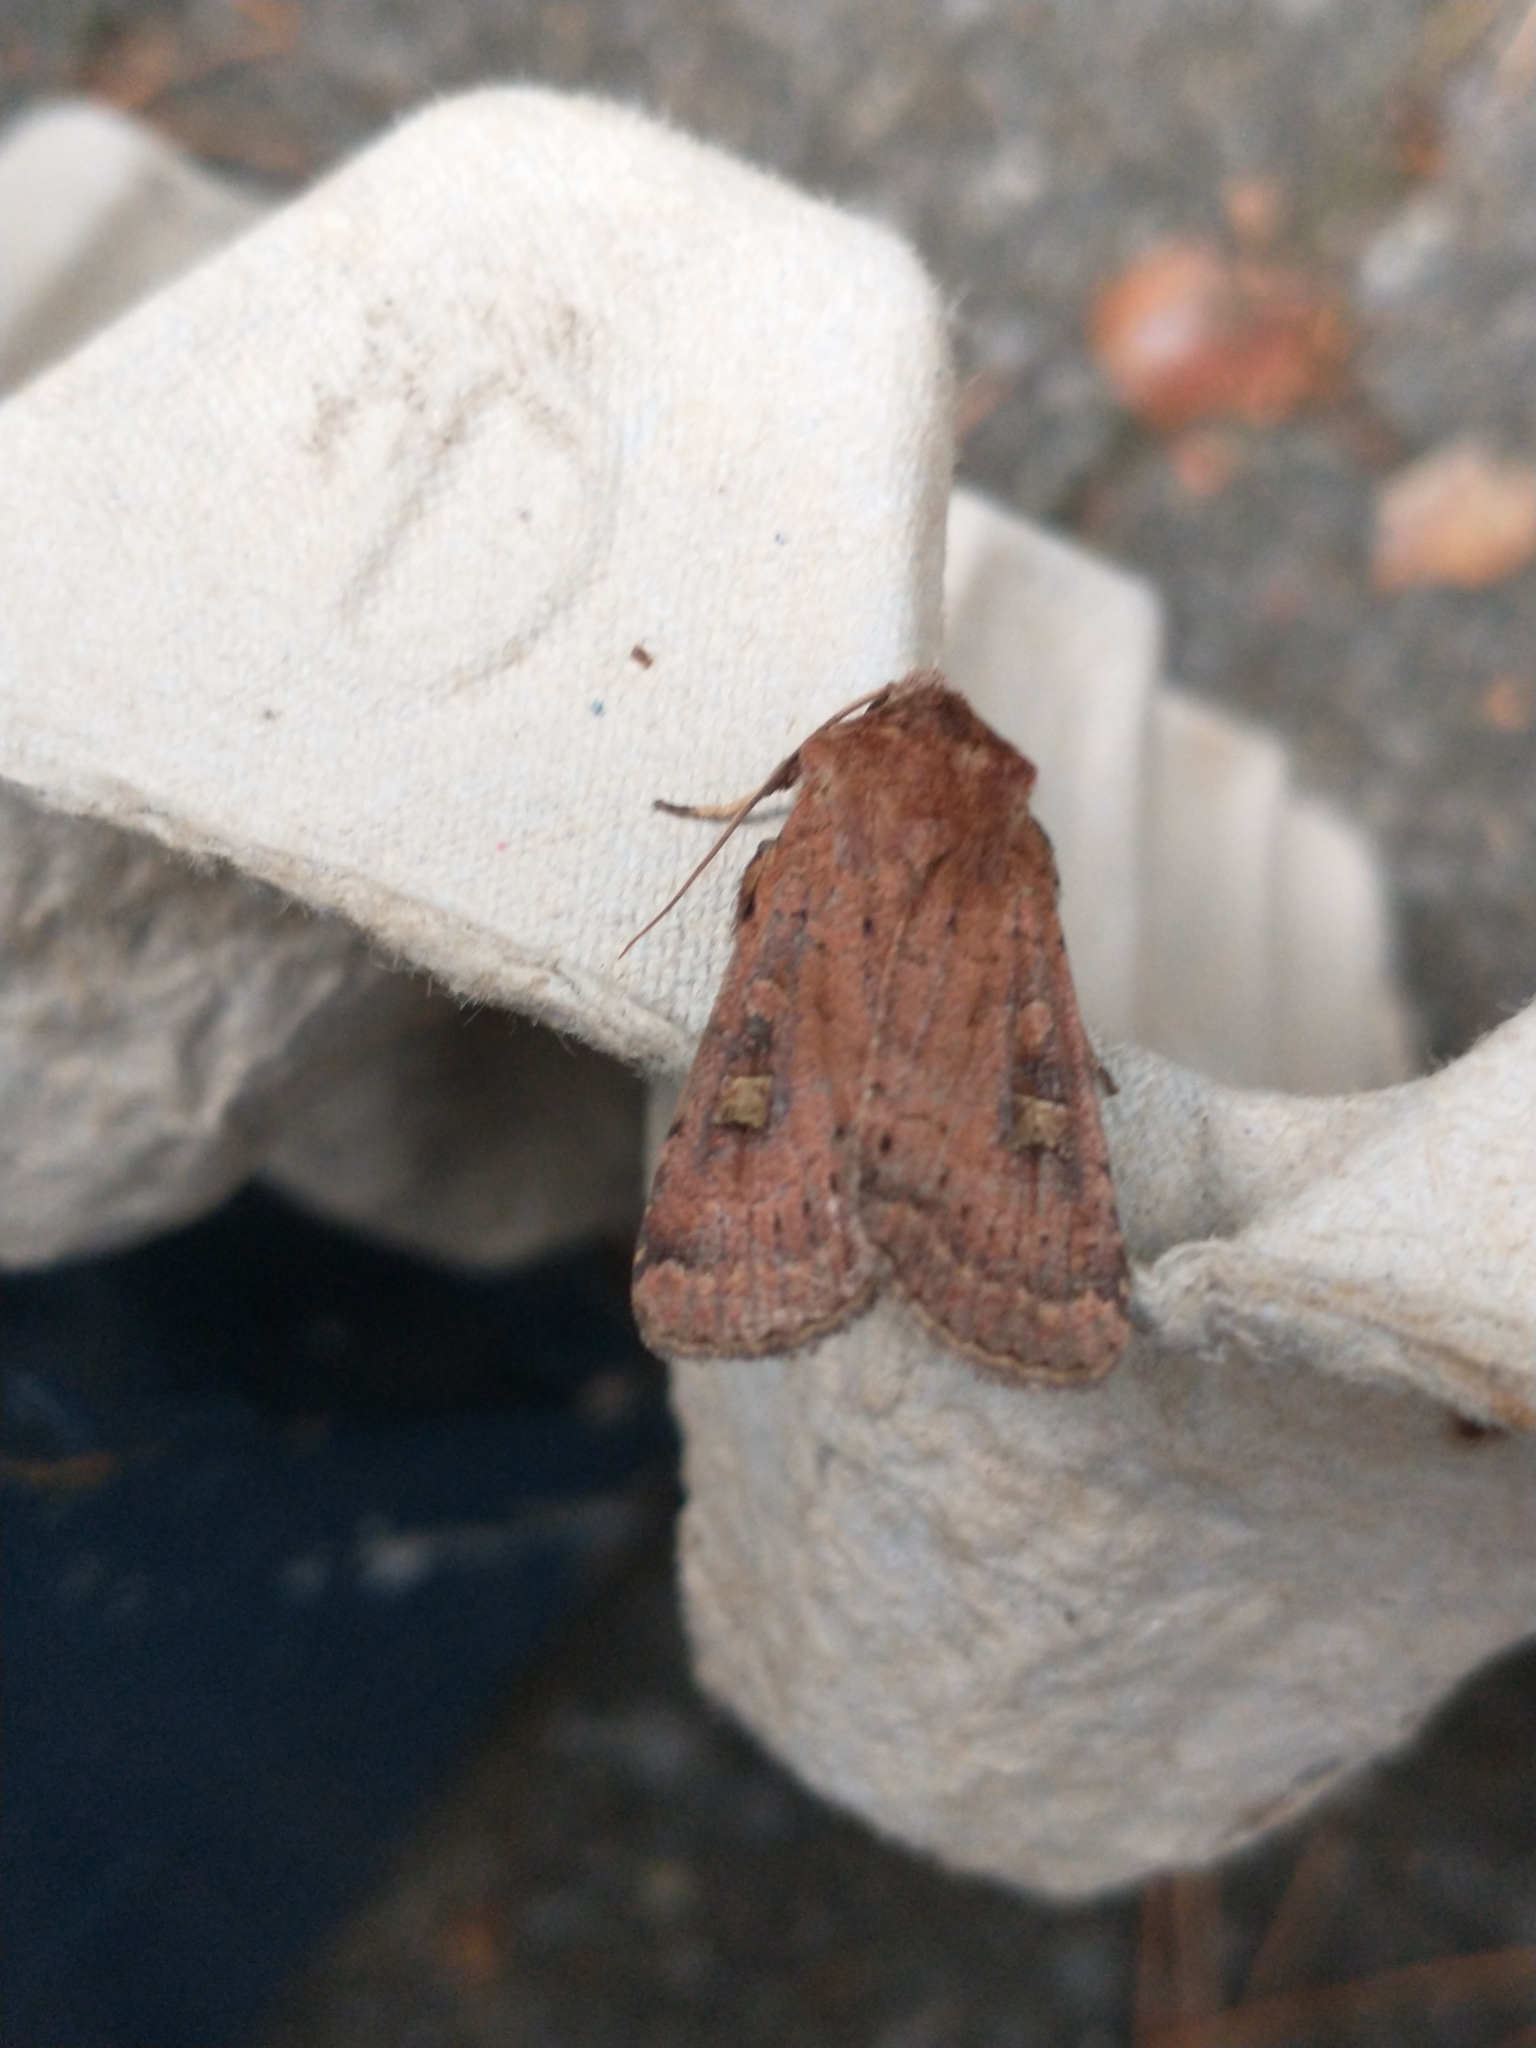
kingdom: Animalia
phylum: Arthropoda
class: Insecta
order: Lepidoptera
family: Noctuidae
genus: Xestia
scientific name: Xestia xanthographa
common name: Square-spot rustic
